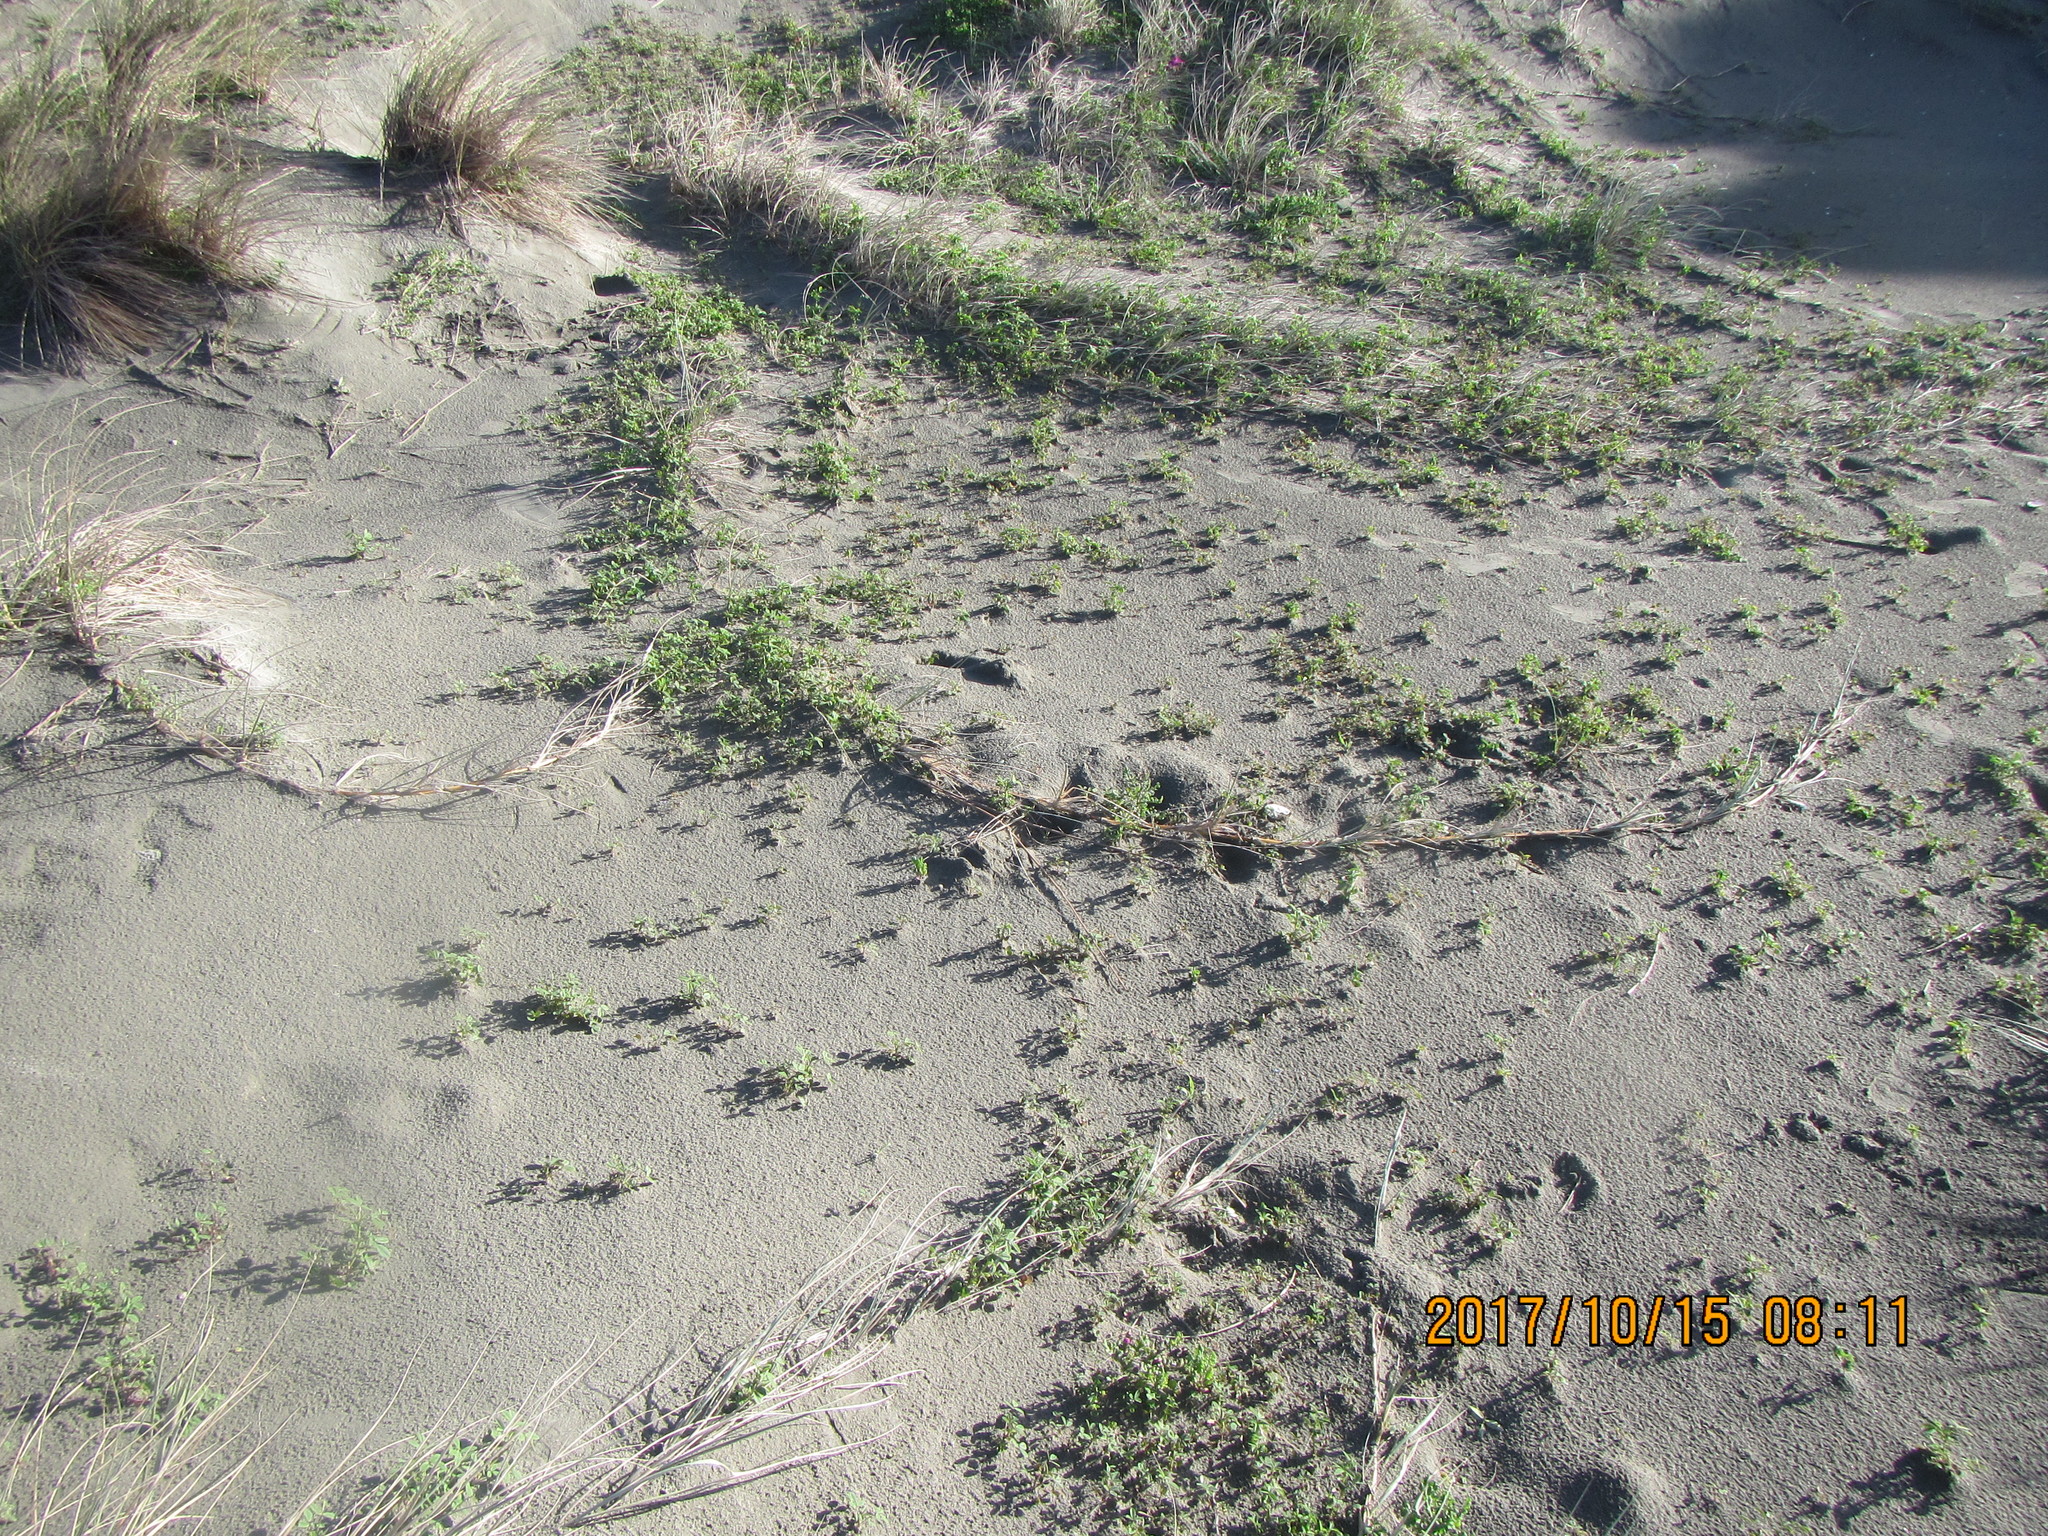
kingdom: Plantae
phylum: Tracheophyta
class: Liliopsida
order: Poales
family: Poaceae
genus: Spinifex
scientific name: Spinifex sericeus
